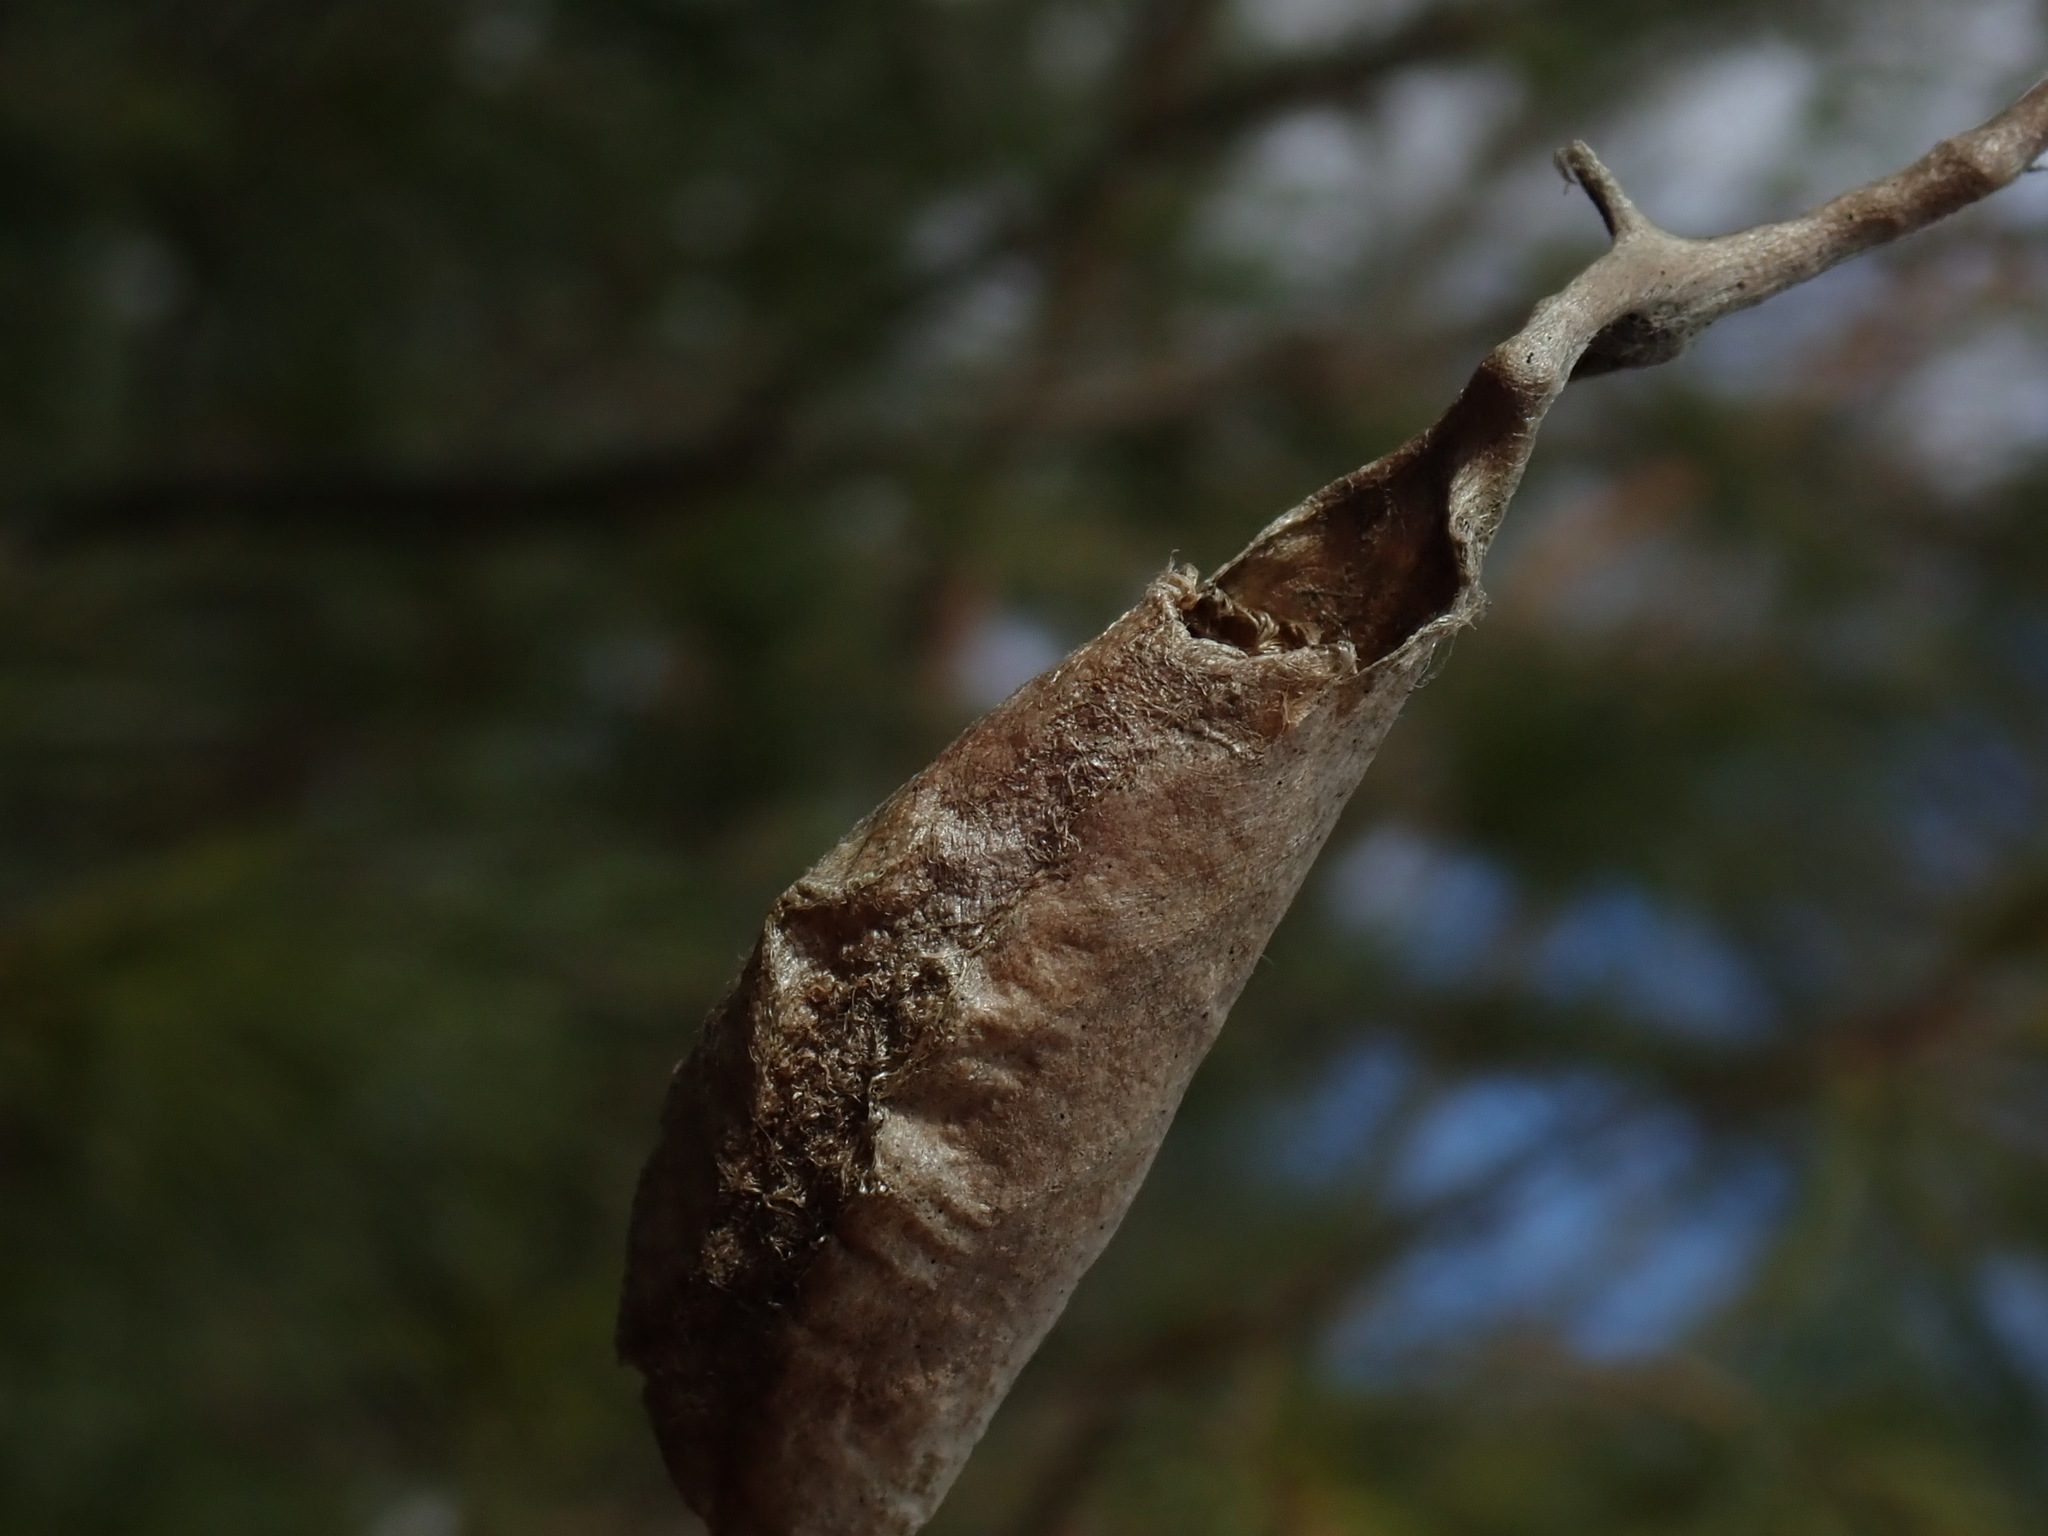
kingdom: Animalia
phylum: Arthropoda
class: Insecta
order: Lepidoptera
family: Saturniidae
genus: Callosamia
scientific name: Callosamia promethea
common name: Promethea silkmoth
